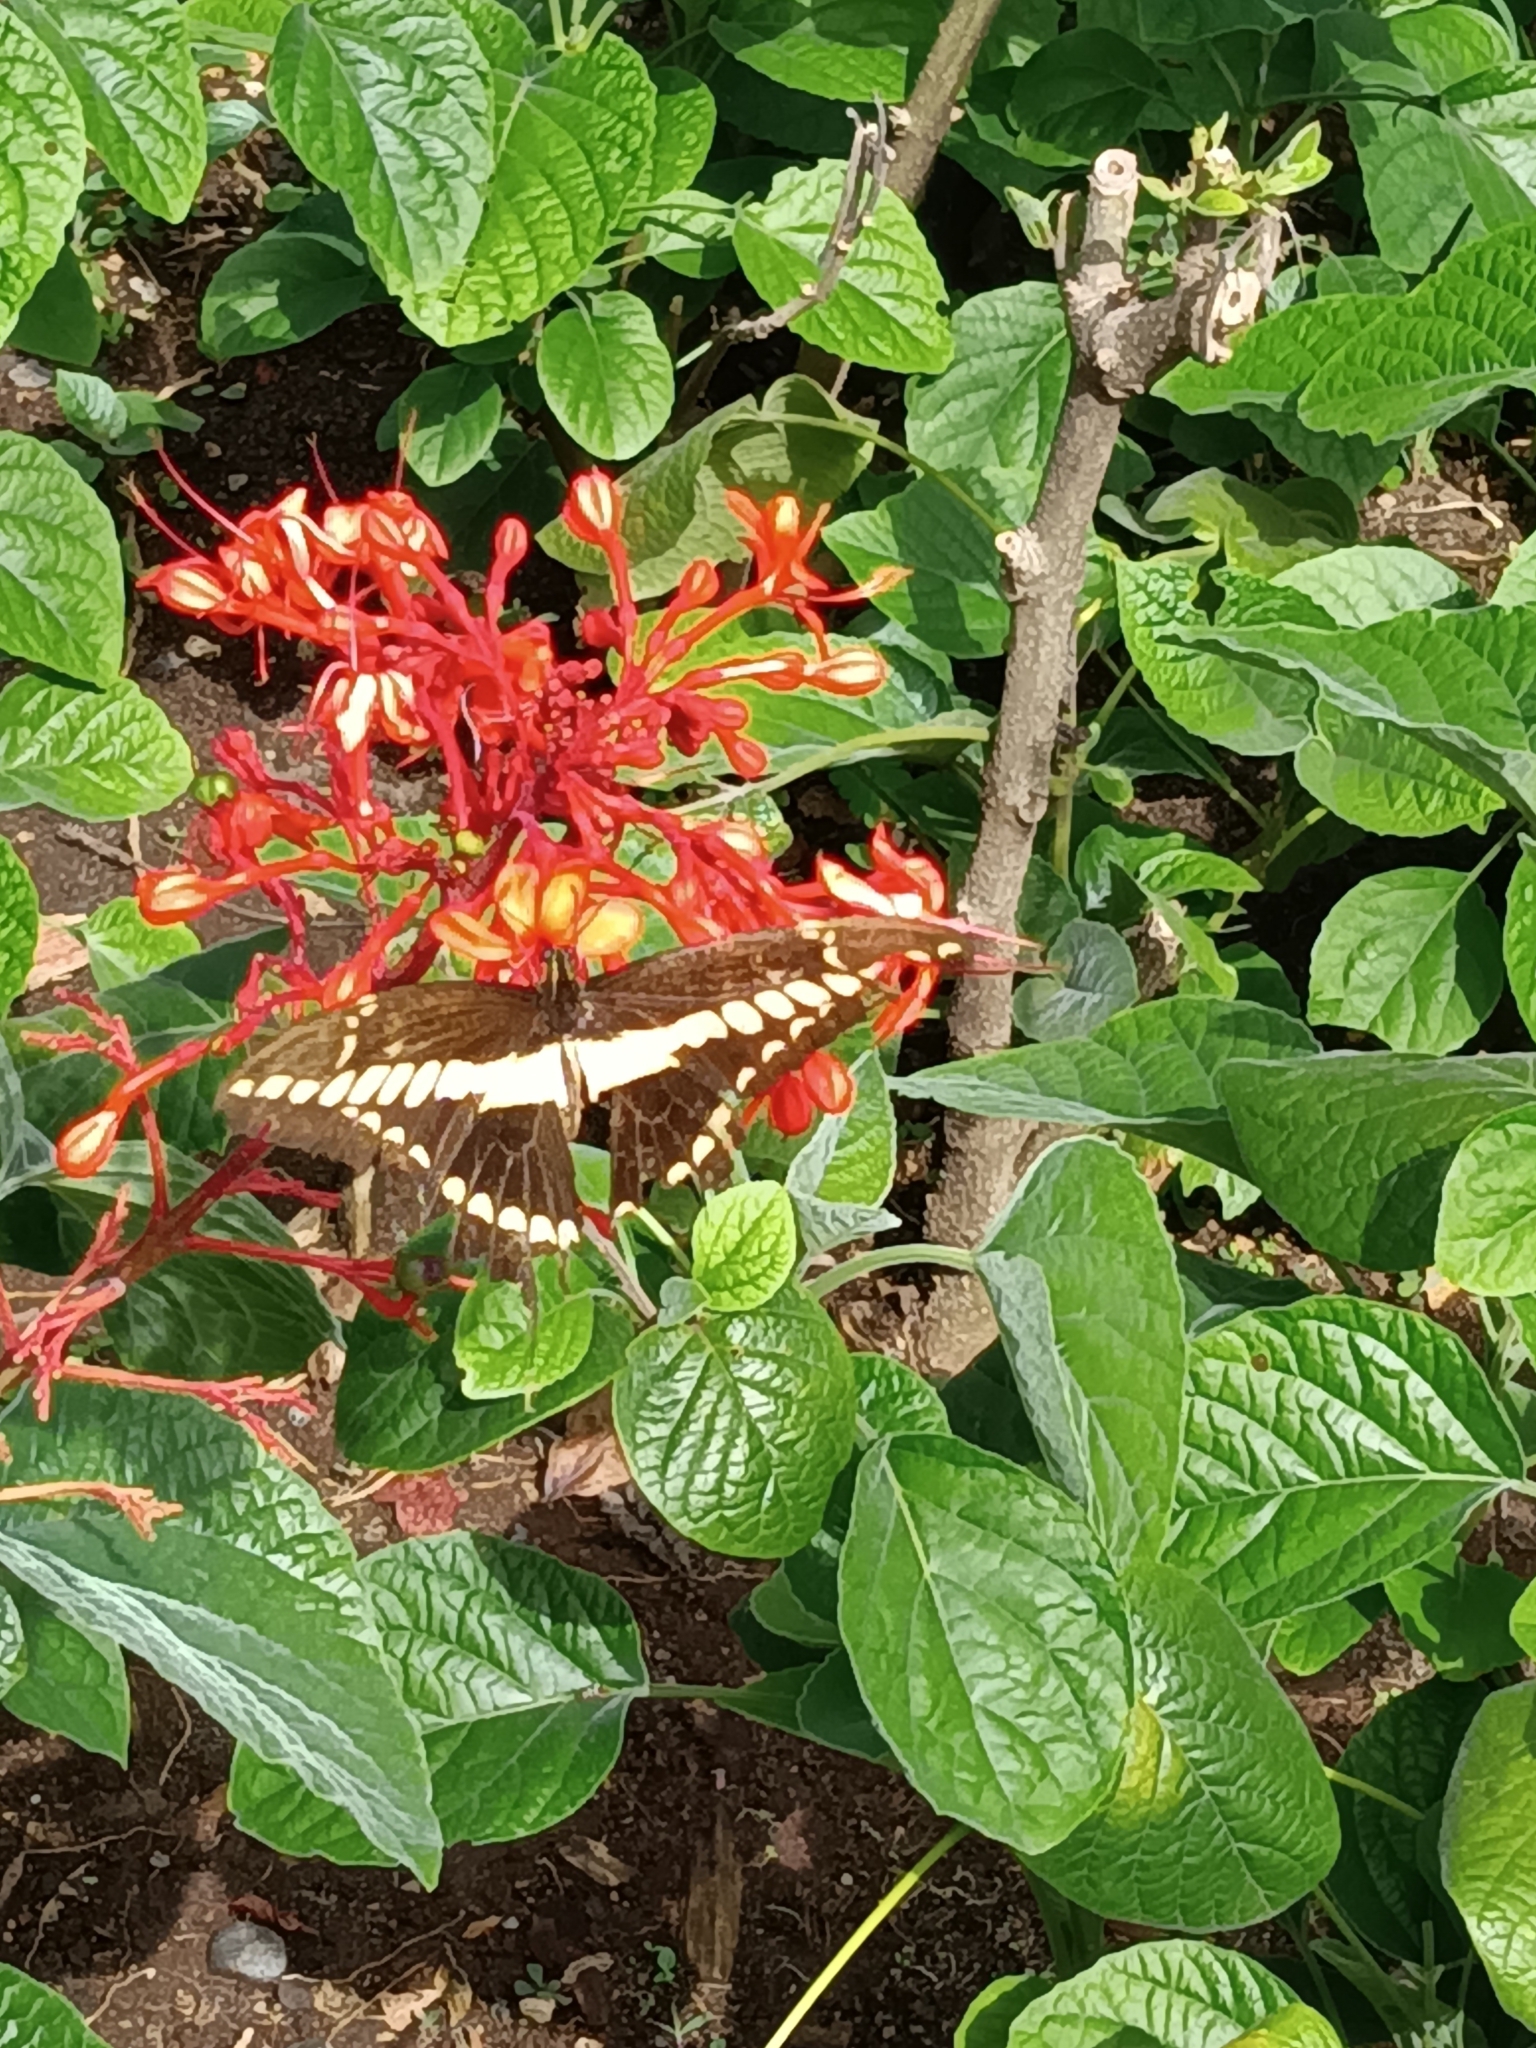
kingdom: Animalia
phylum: Arthropoda
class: Insecta
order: Lepidoptera
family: Papilionidae
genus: Papilio
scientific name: Papilio thoas
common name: King swallowtail
